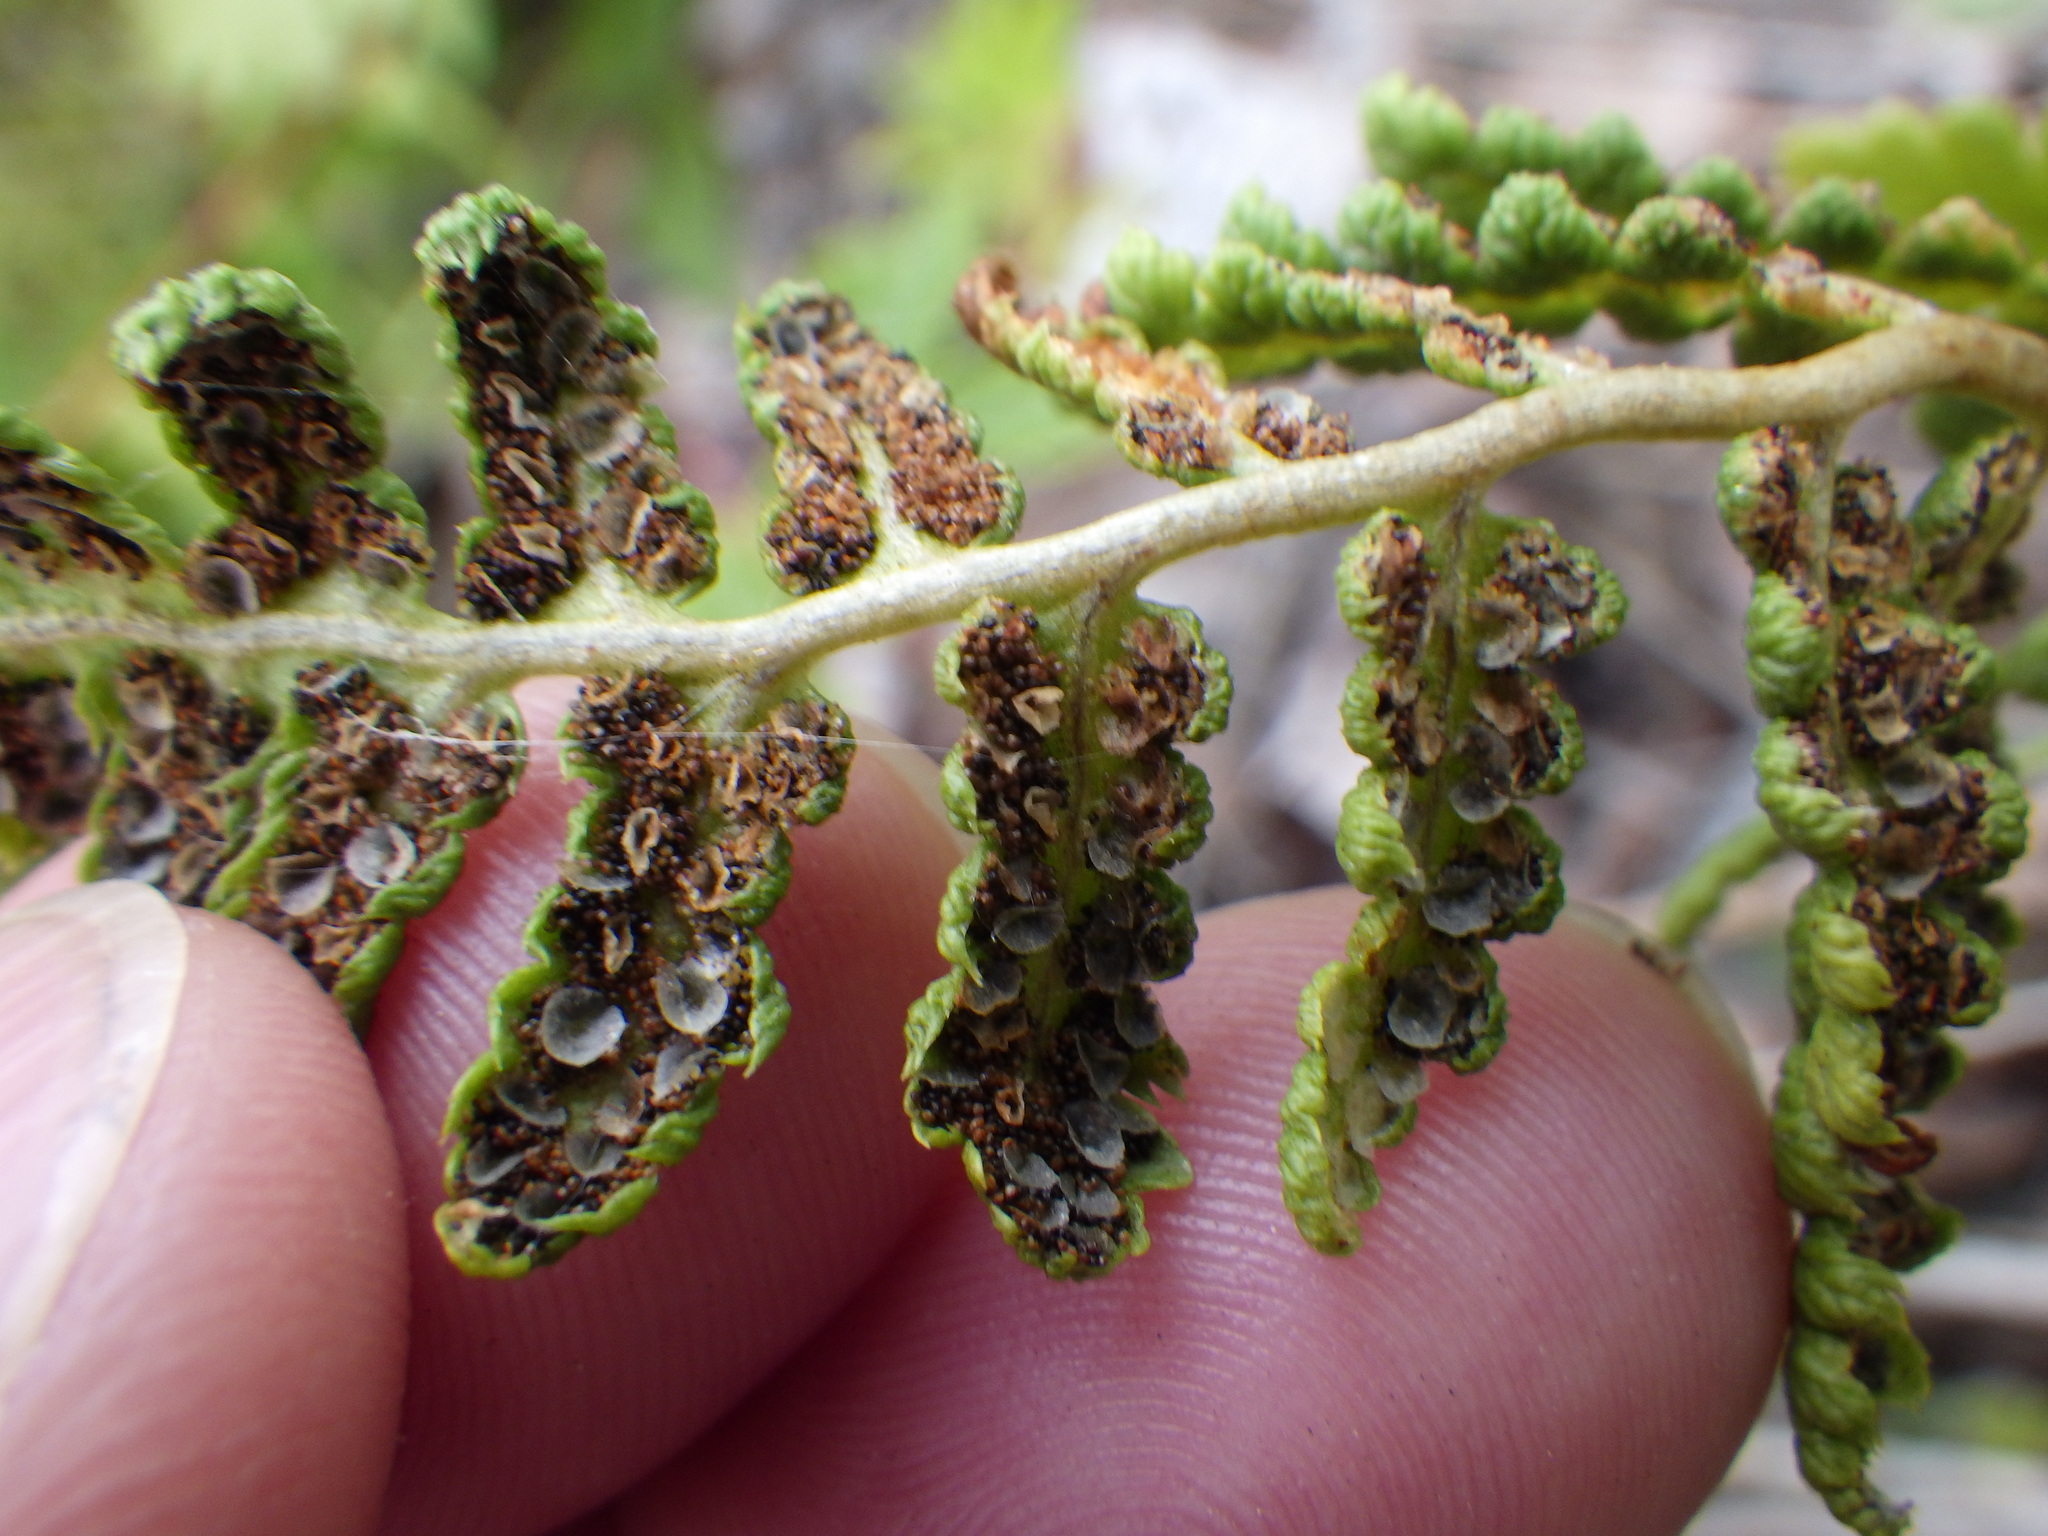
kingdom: Plantae
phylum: Tracheophyta
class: Polypodiopsida
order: Polypodiales
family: Dryopteridaceae
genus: Dryopteris
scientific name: Dryopteris cristata
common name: Crested wood fern
